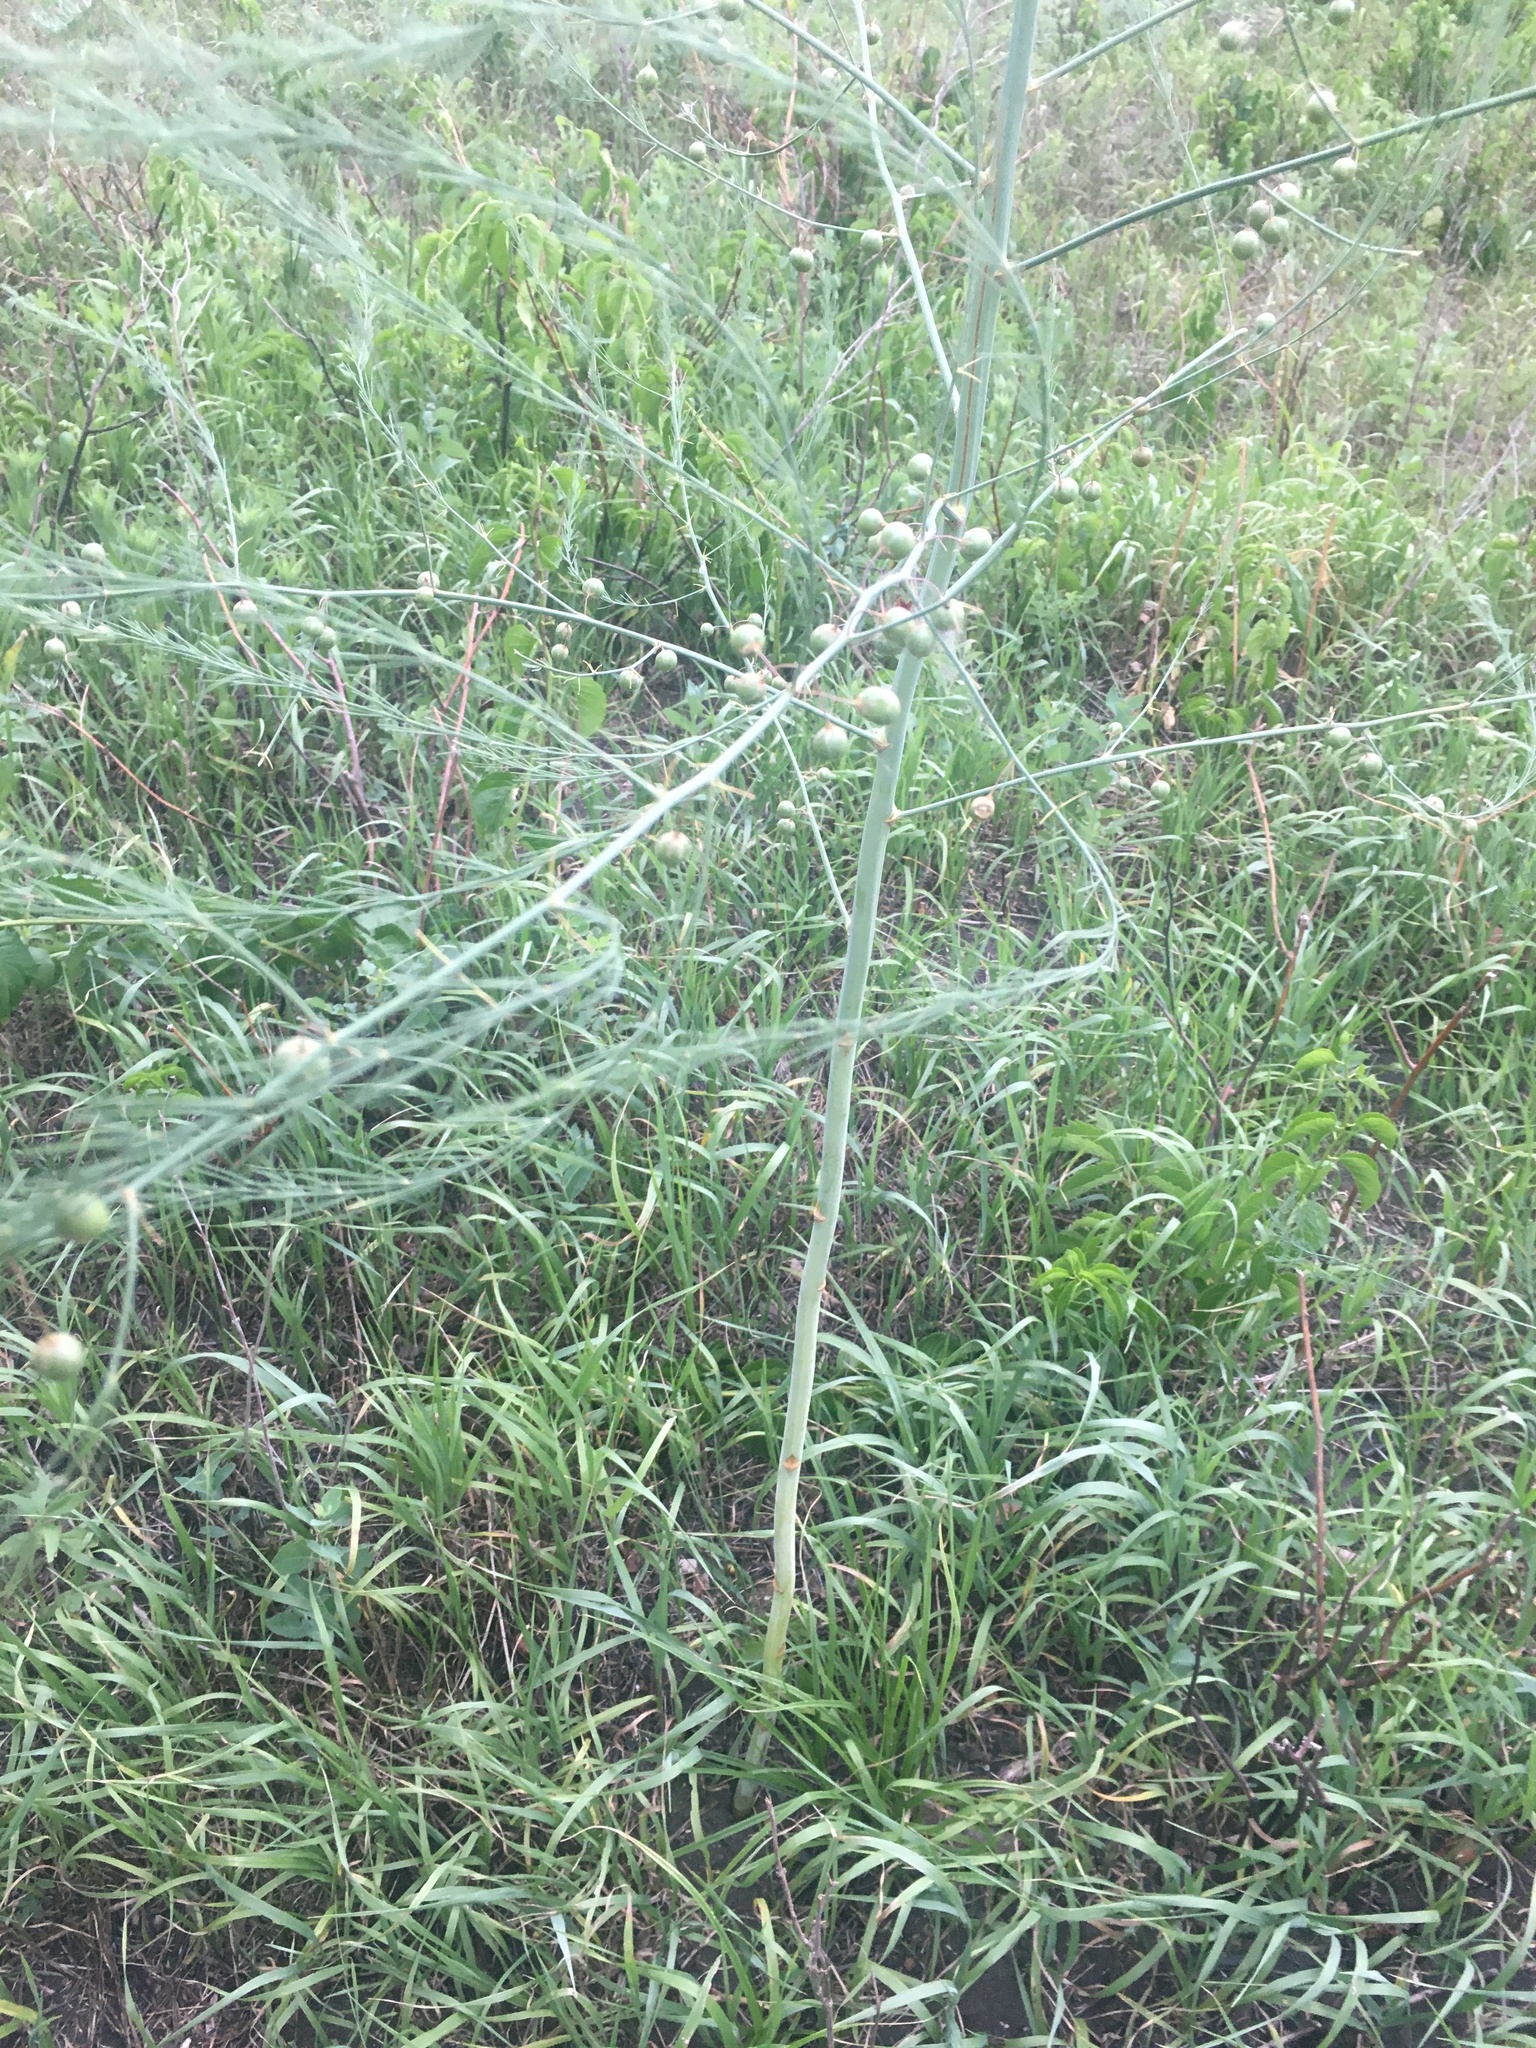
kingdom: Plantae
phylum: Tracheophyta
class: Liliopsida
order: Asparagales
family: Asparagaceae
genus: Asparagus
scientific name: Asparagus officinalis
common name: Garden asparagus
